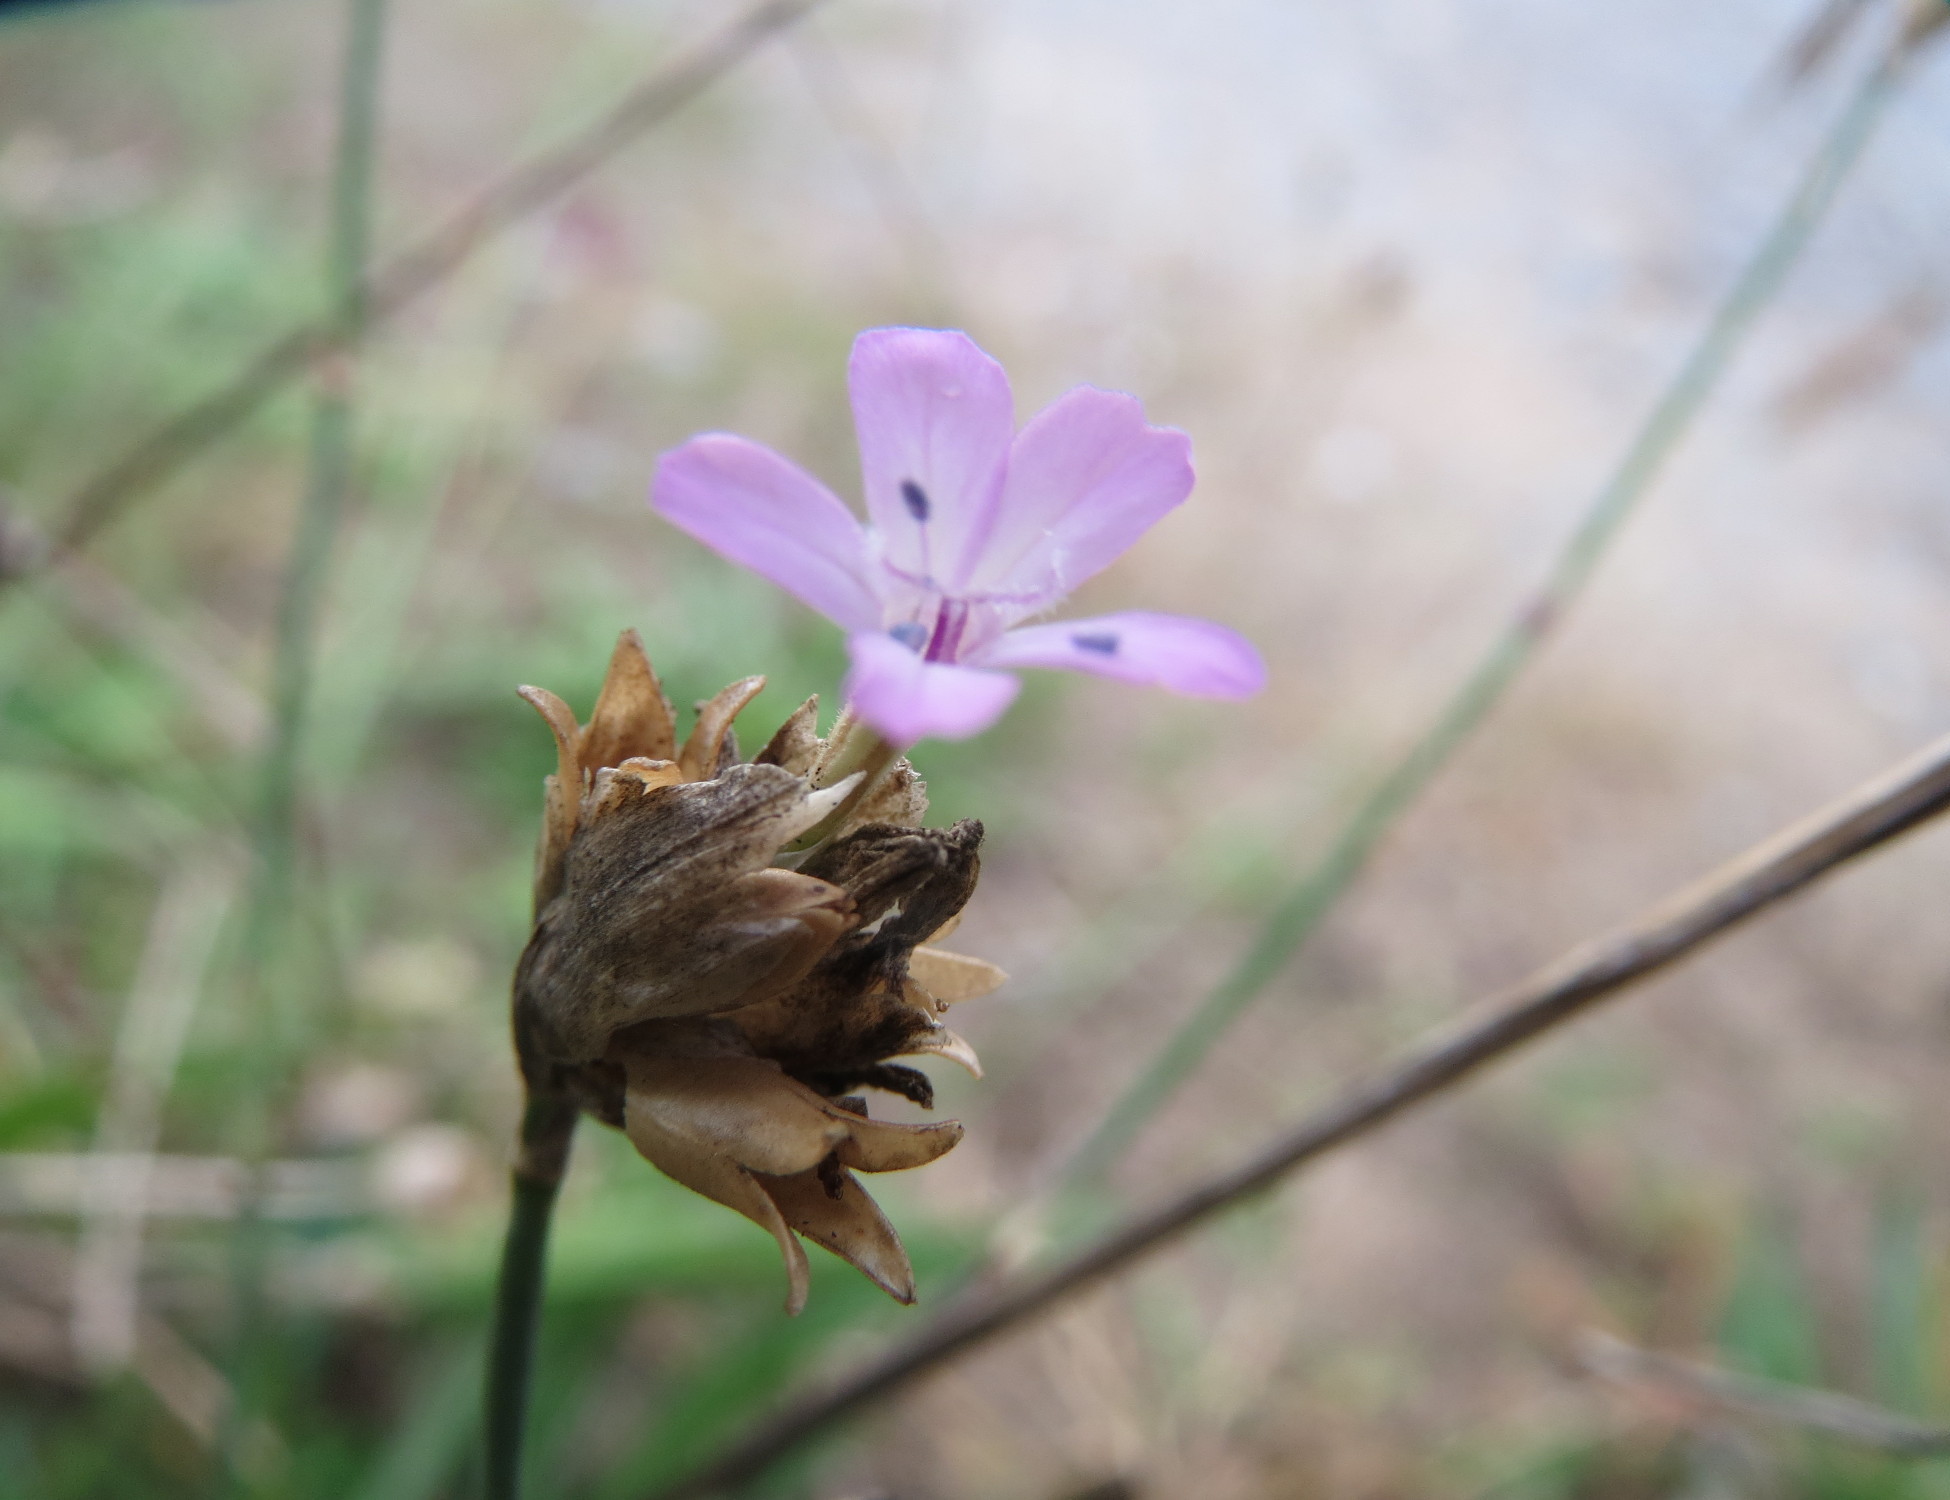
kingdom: Plantae
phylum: Tracheophyta
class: Magnoliopsida
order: Caryophyllales
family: Caryophyllaceae
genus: Petrorhagia
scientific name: Petrorhagia prolifera
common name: Proliferous pink
